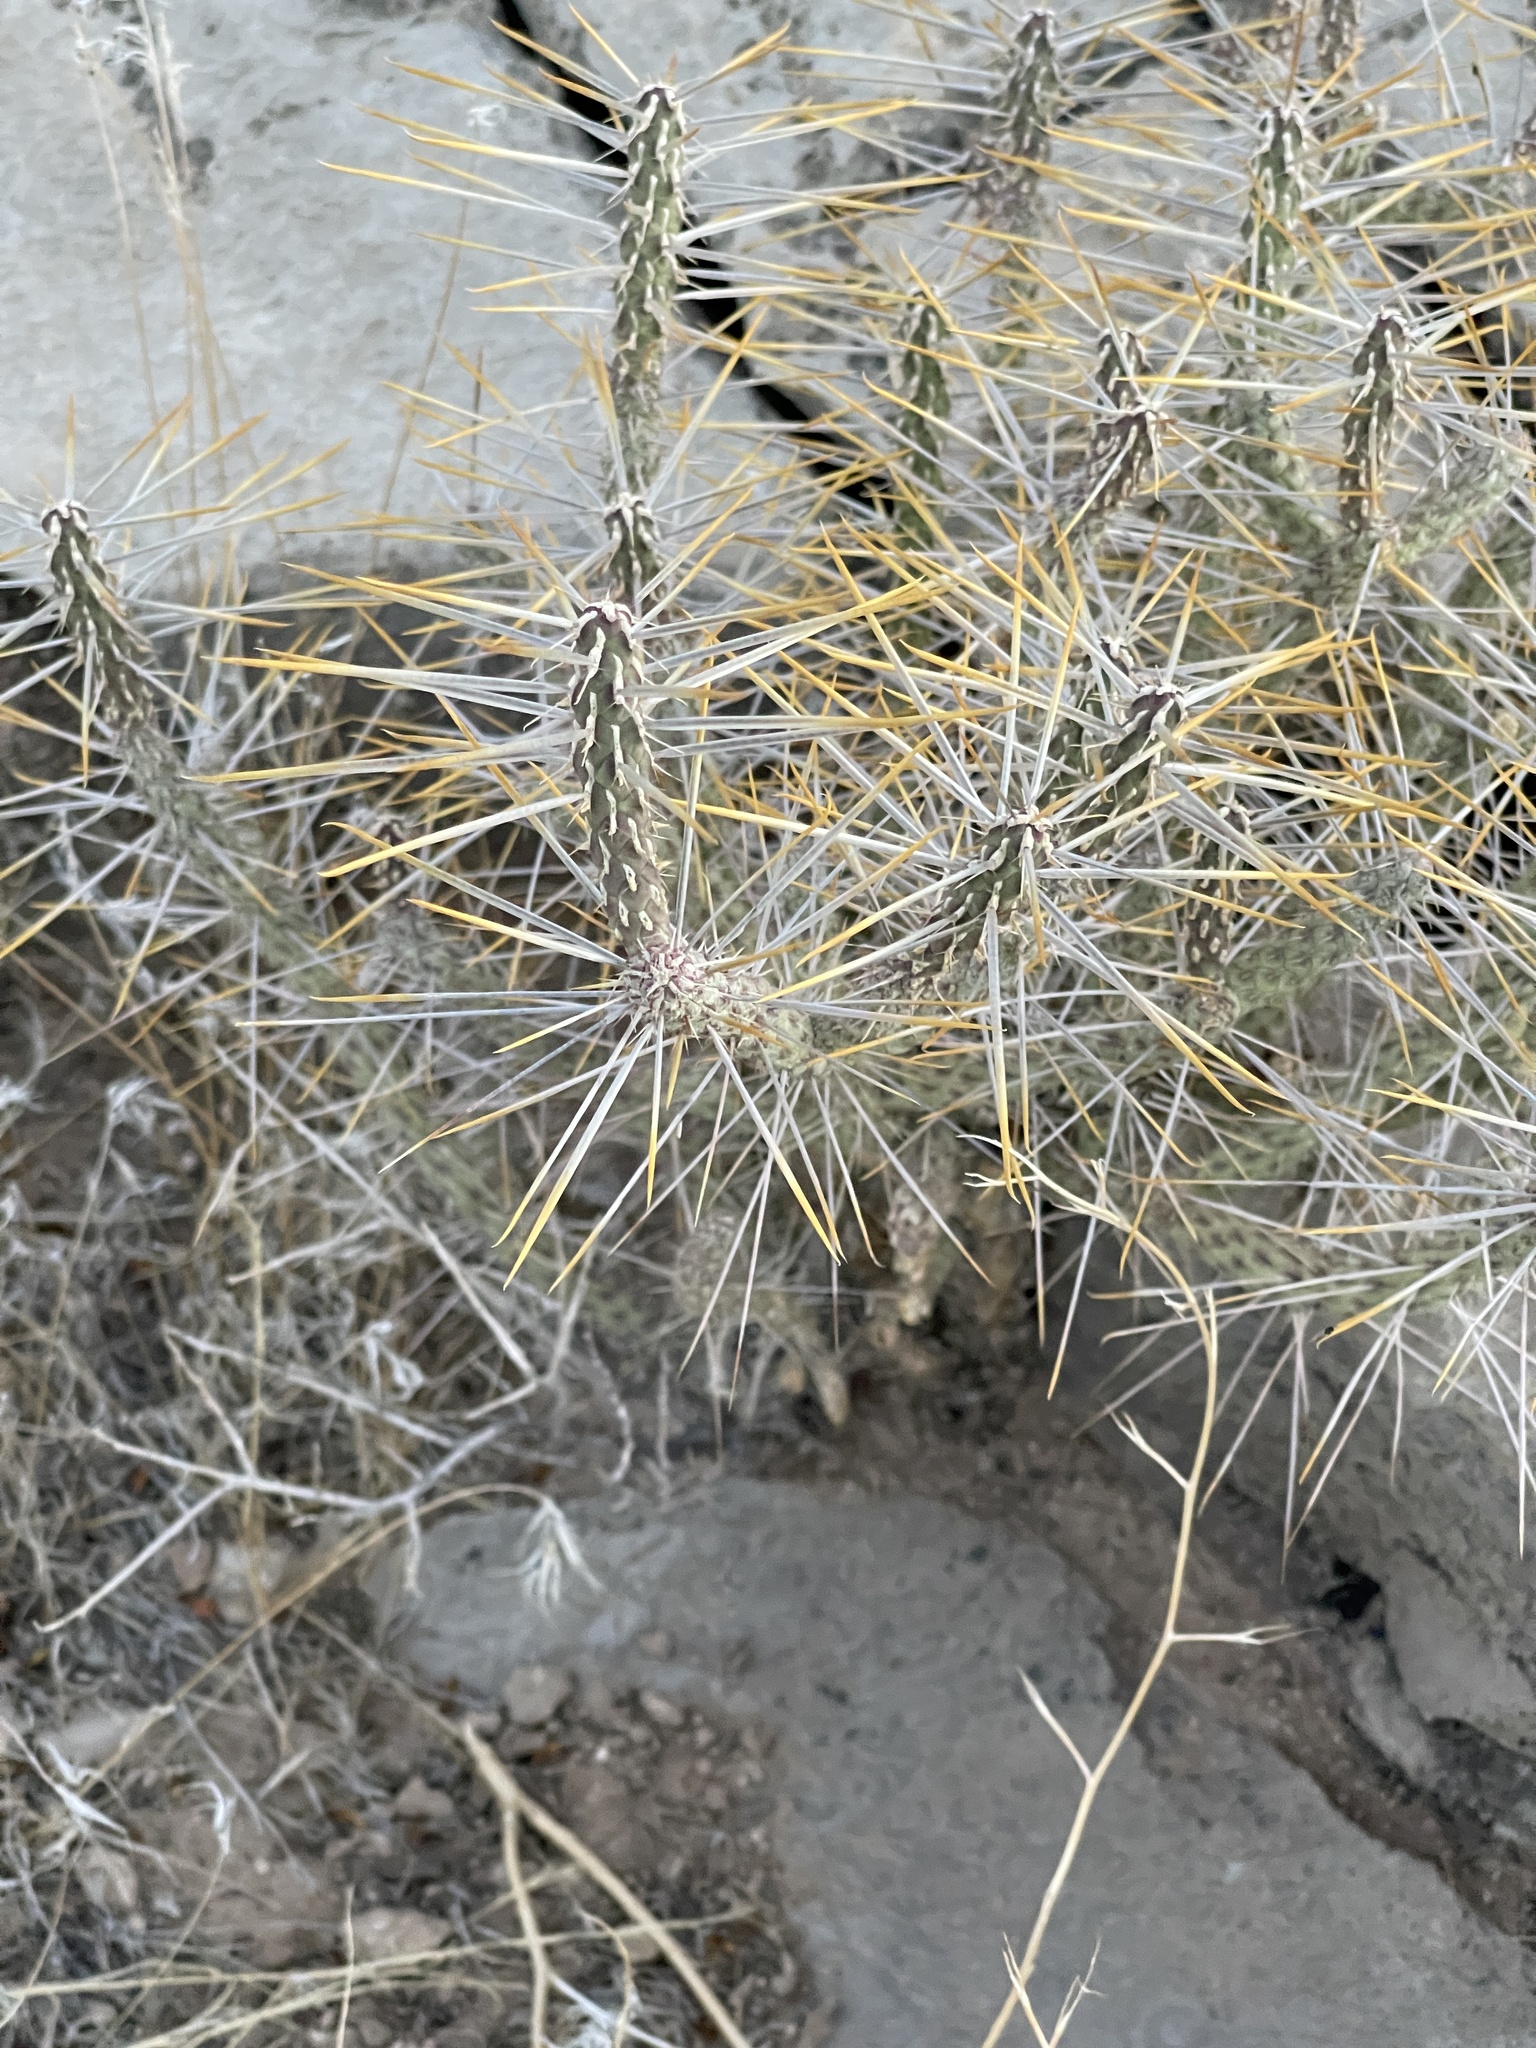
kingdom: Plantae
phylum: Tracheophyta
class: Magnoliopsida
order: Caryophyllales
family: Cactaceae
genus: Cylindropuntia
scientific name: Cylindropuntia ramosissima
